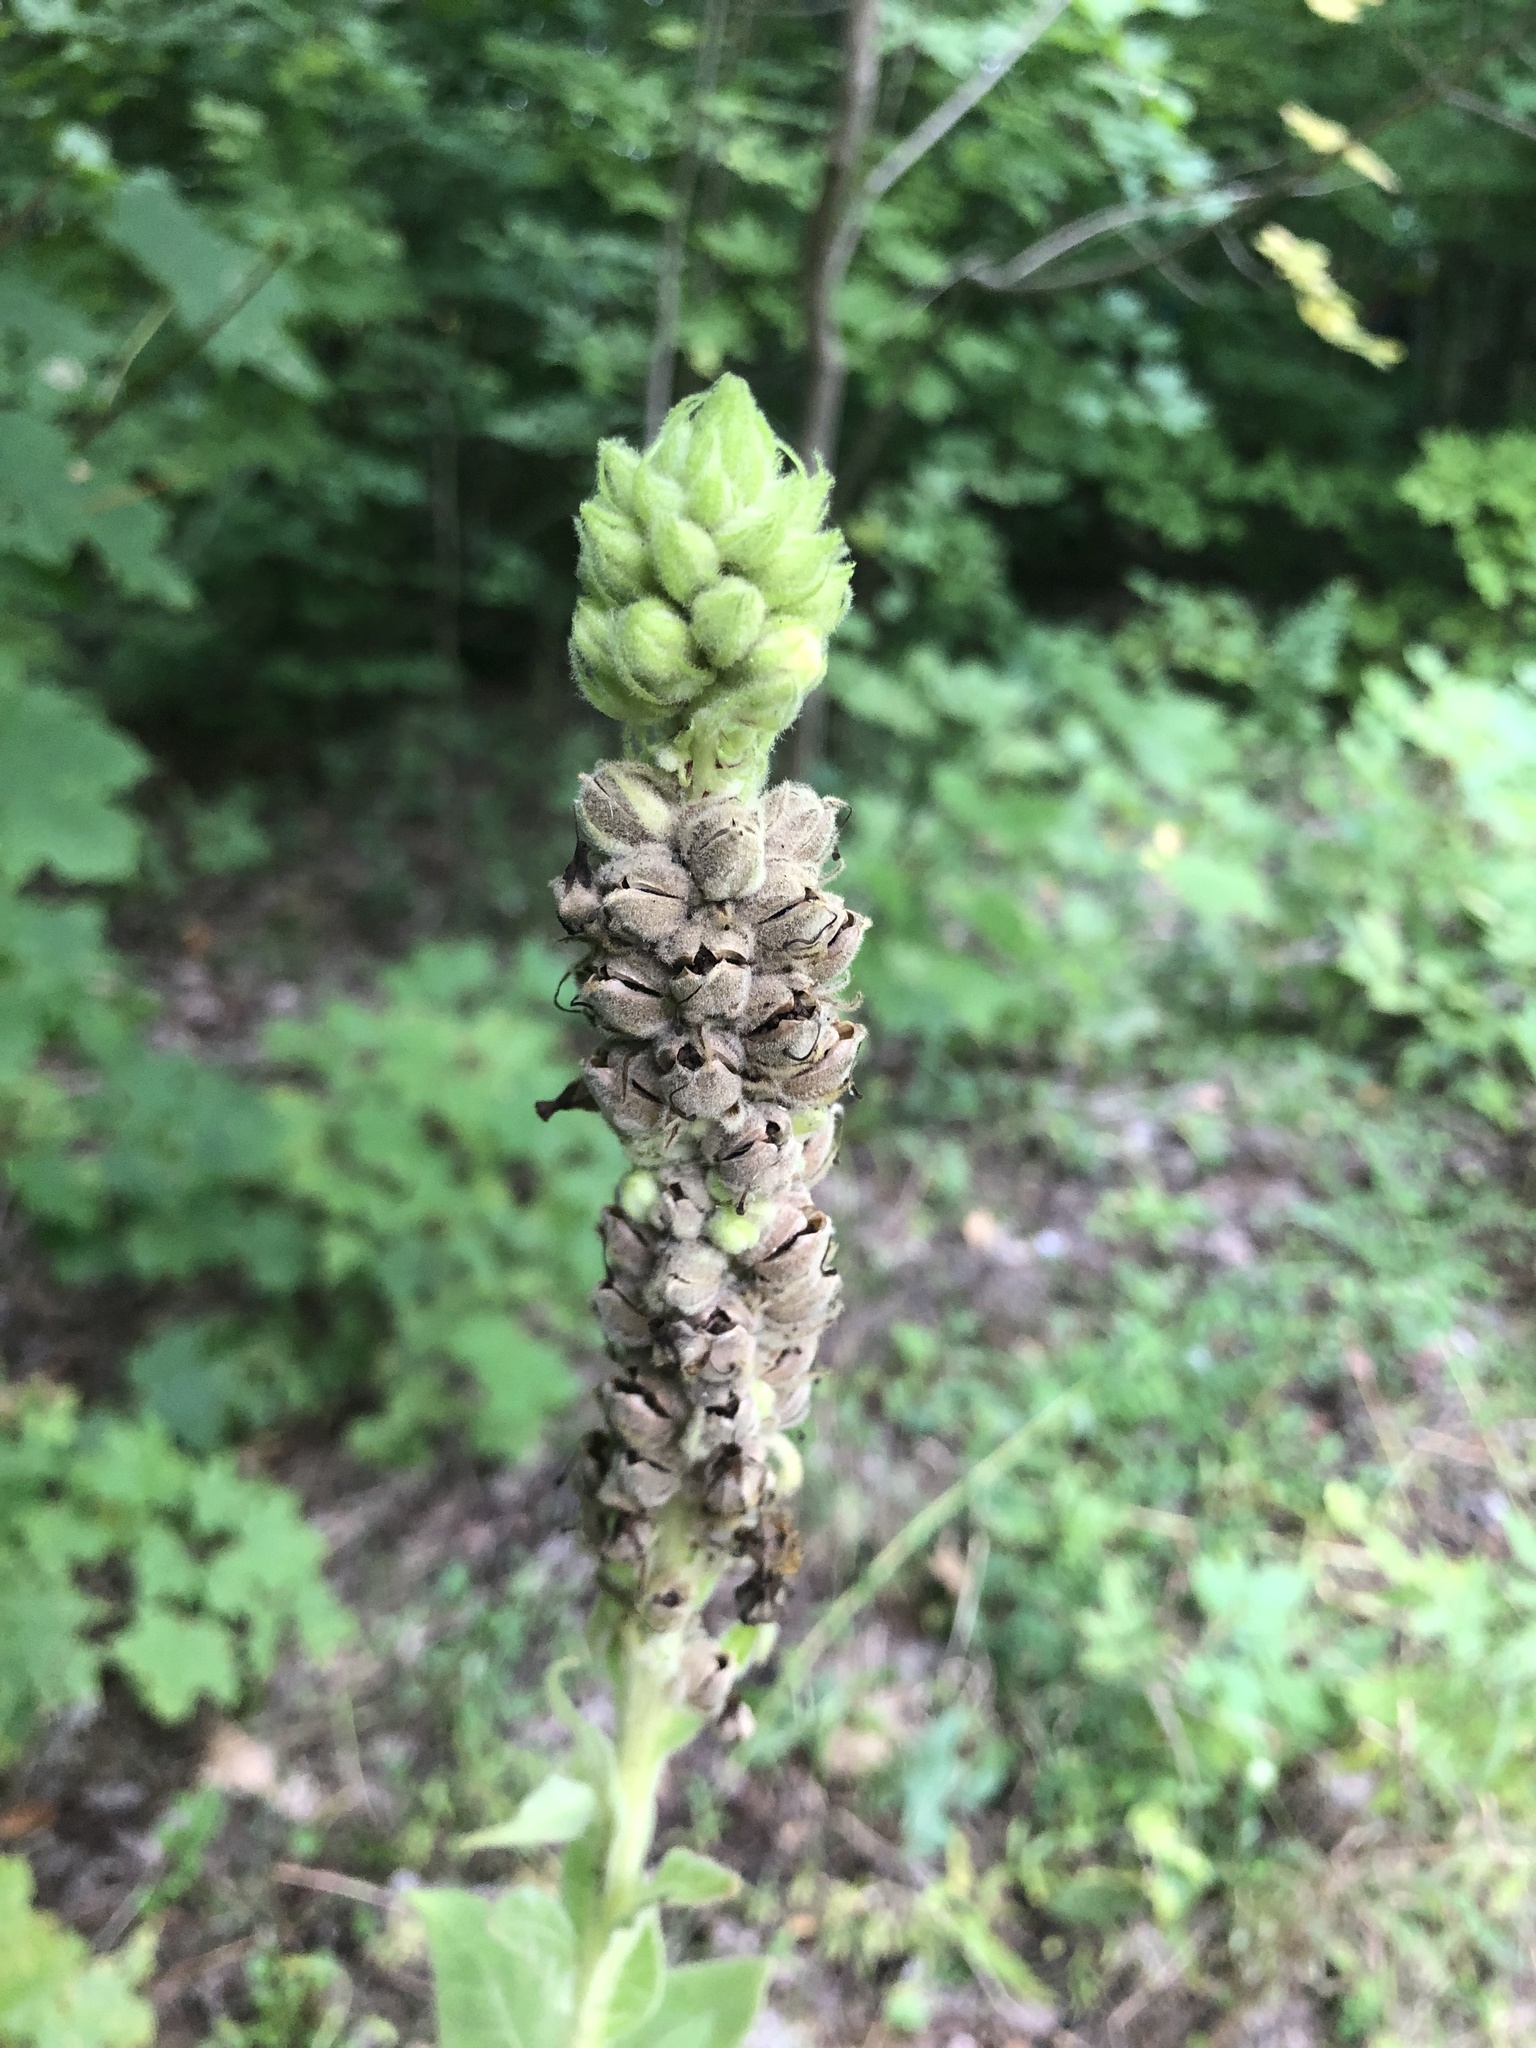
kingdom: Plantae
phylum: Tracheophyta
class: Magnoliopsida
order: Lamiales
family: Scrophulariaceae
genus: Verbascum
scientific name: Verbascum thapsus
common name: Common mullein
